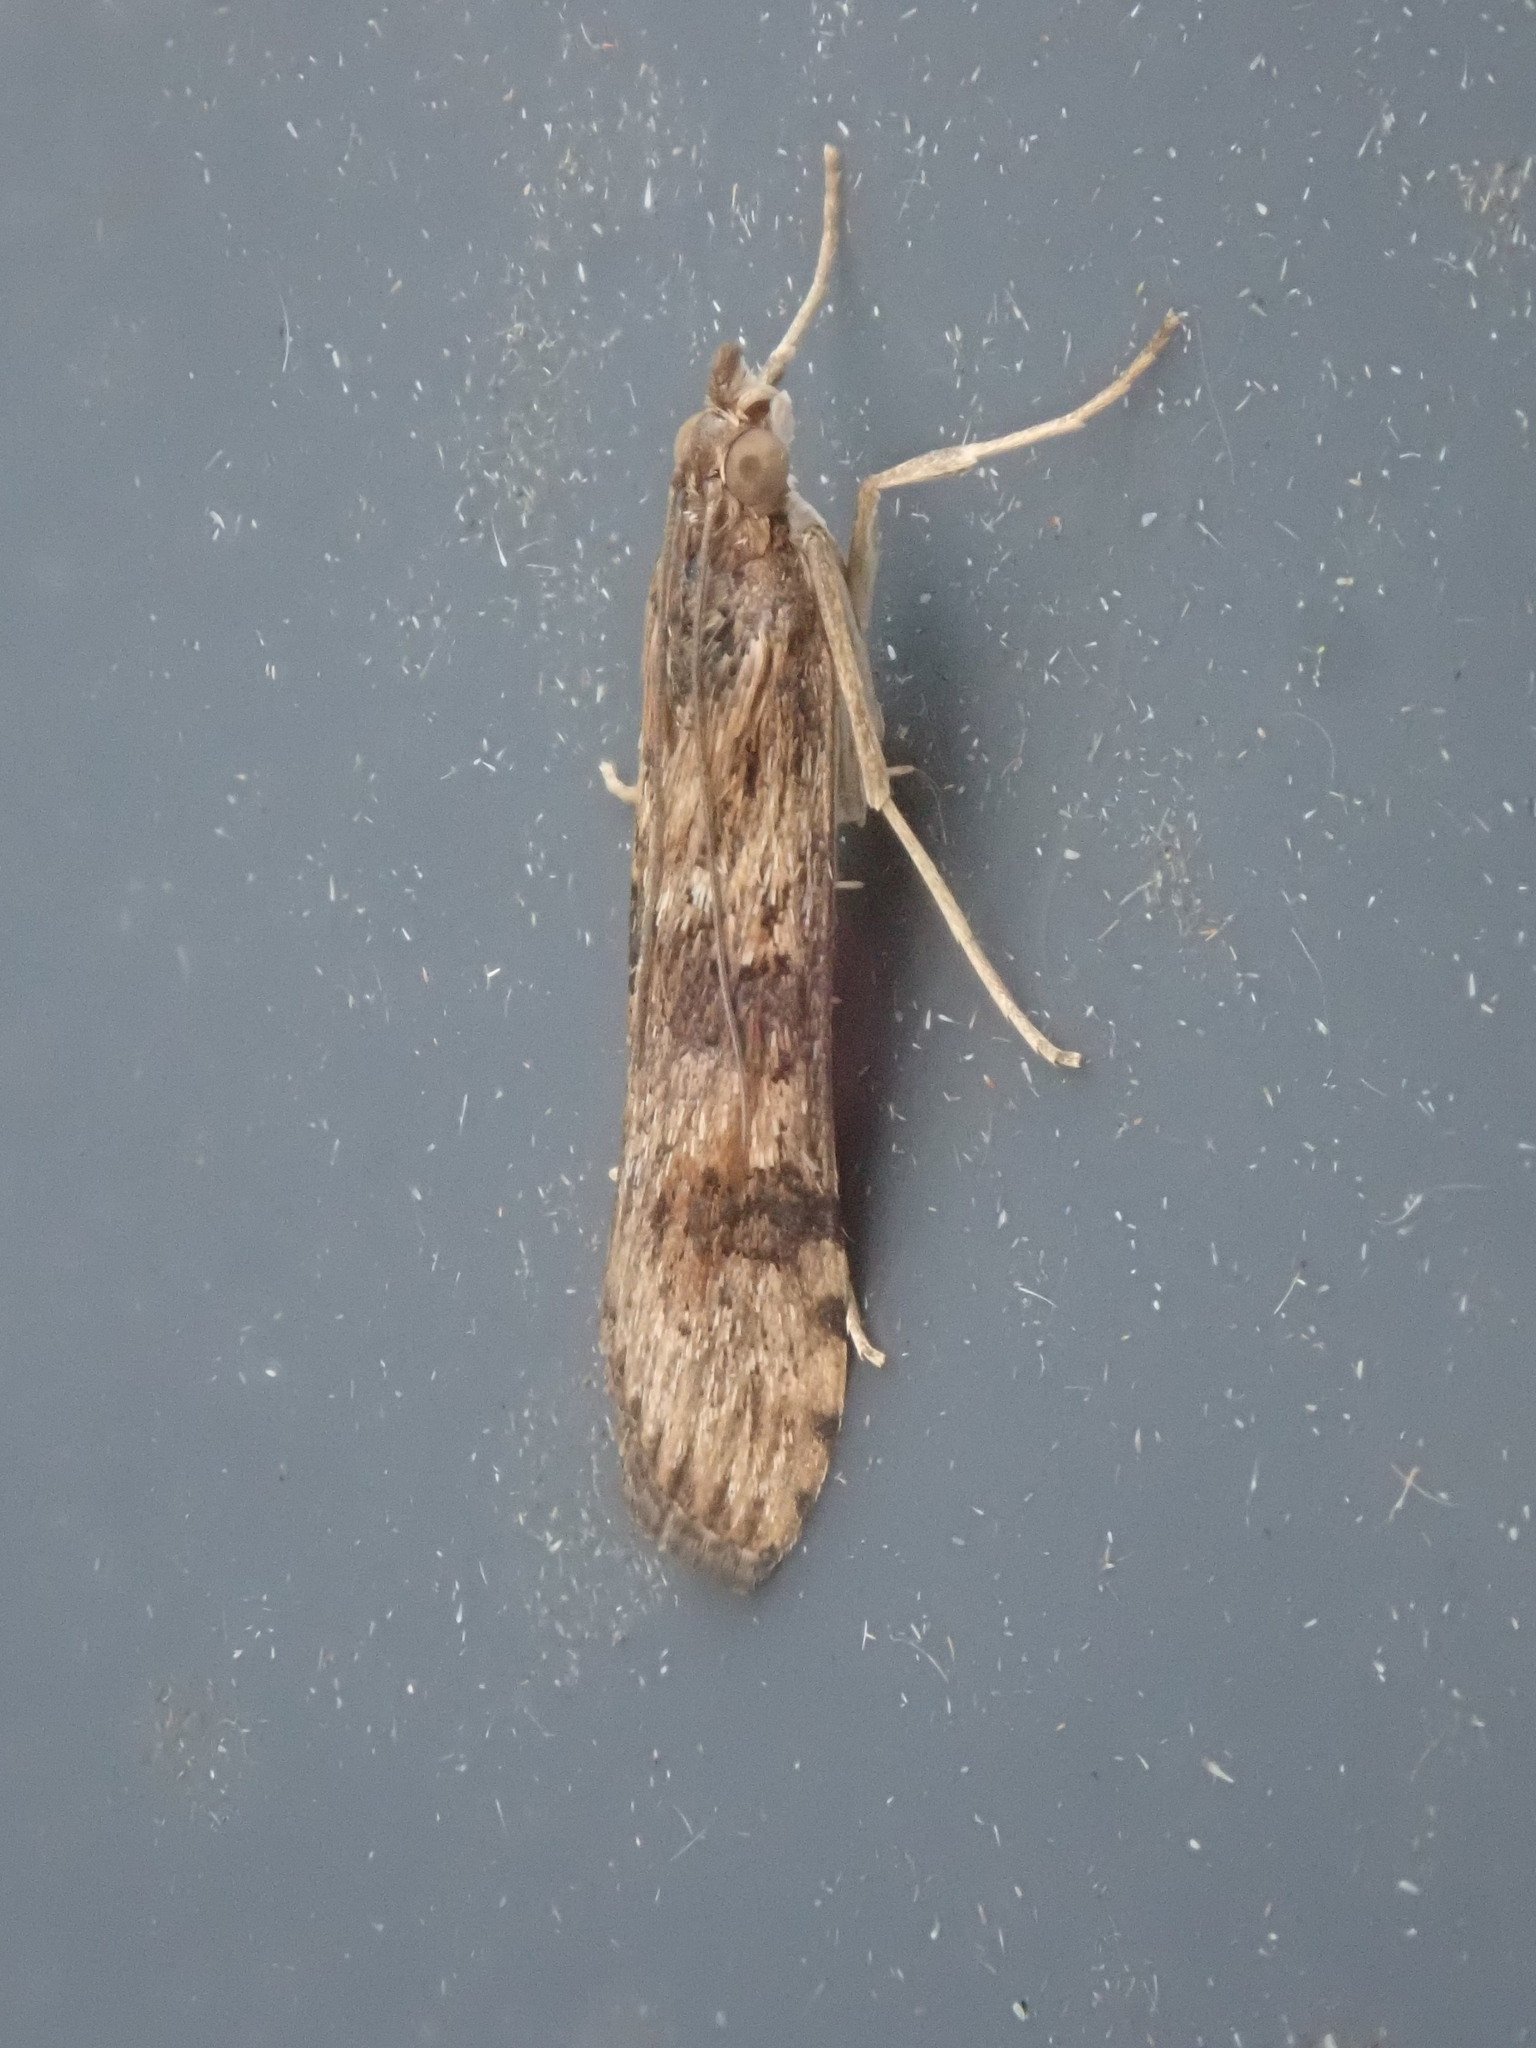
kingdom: Animalia
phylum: Arthropoda
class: Insecta
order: Lepidoptera
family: Crambidae
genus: Nomophila
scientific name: Nomophila nearctica
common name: American rush veneer
